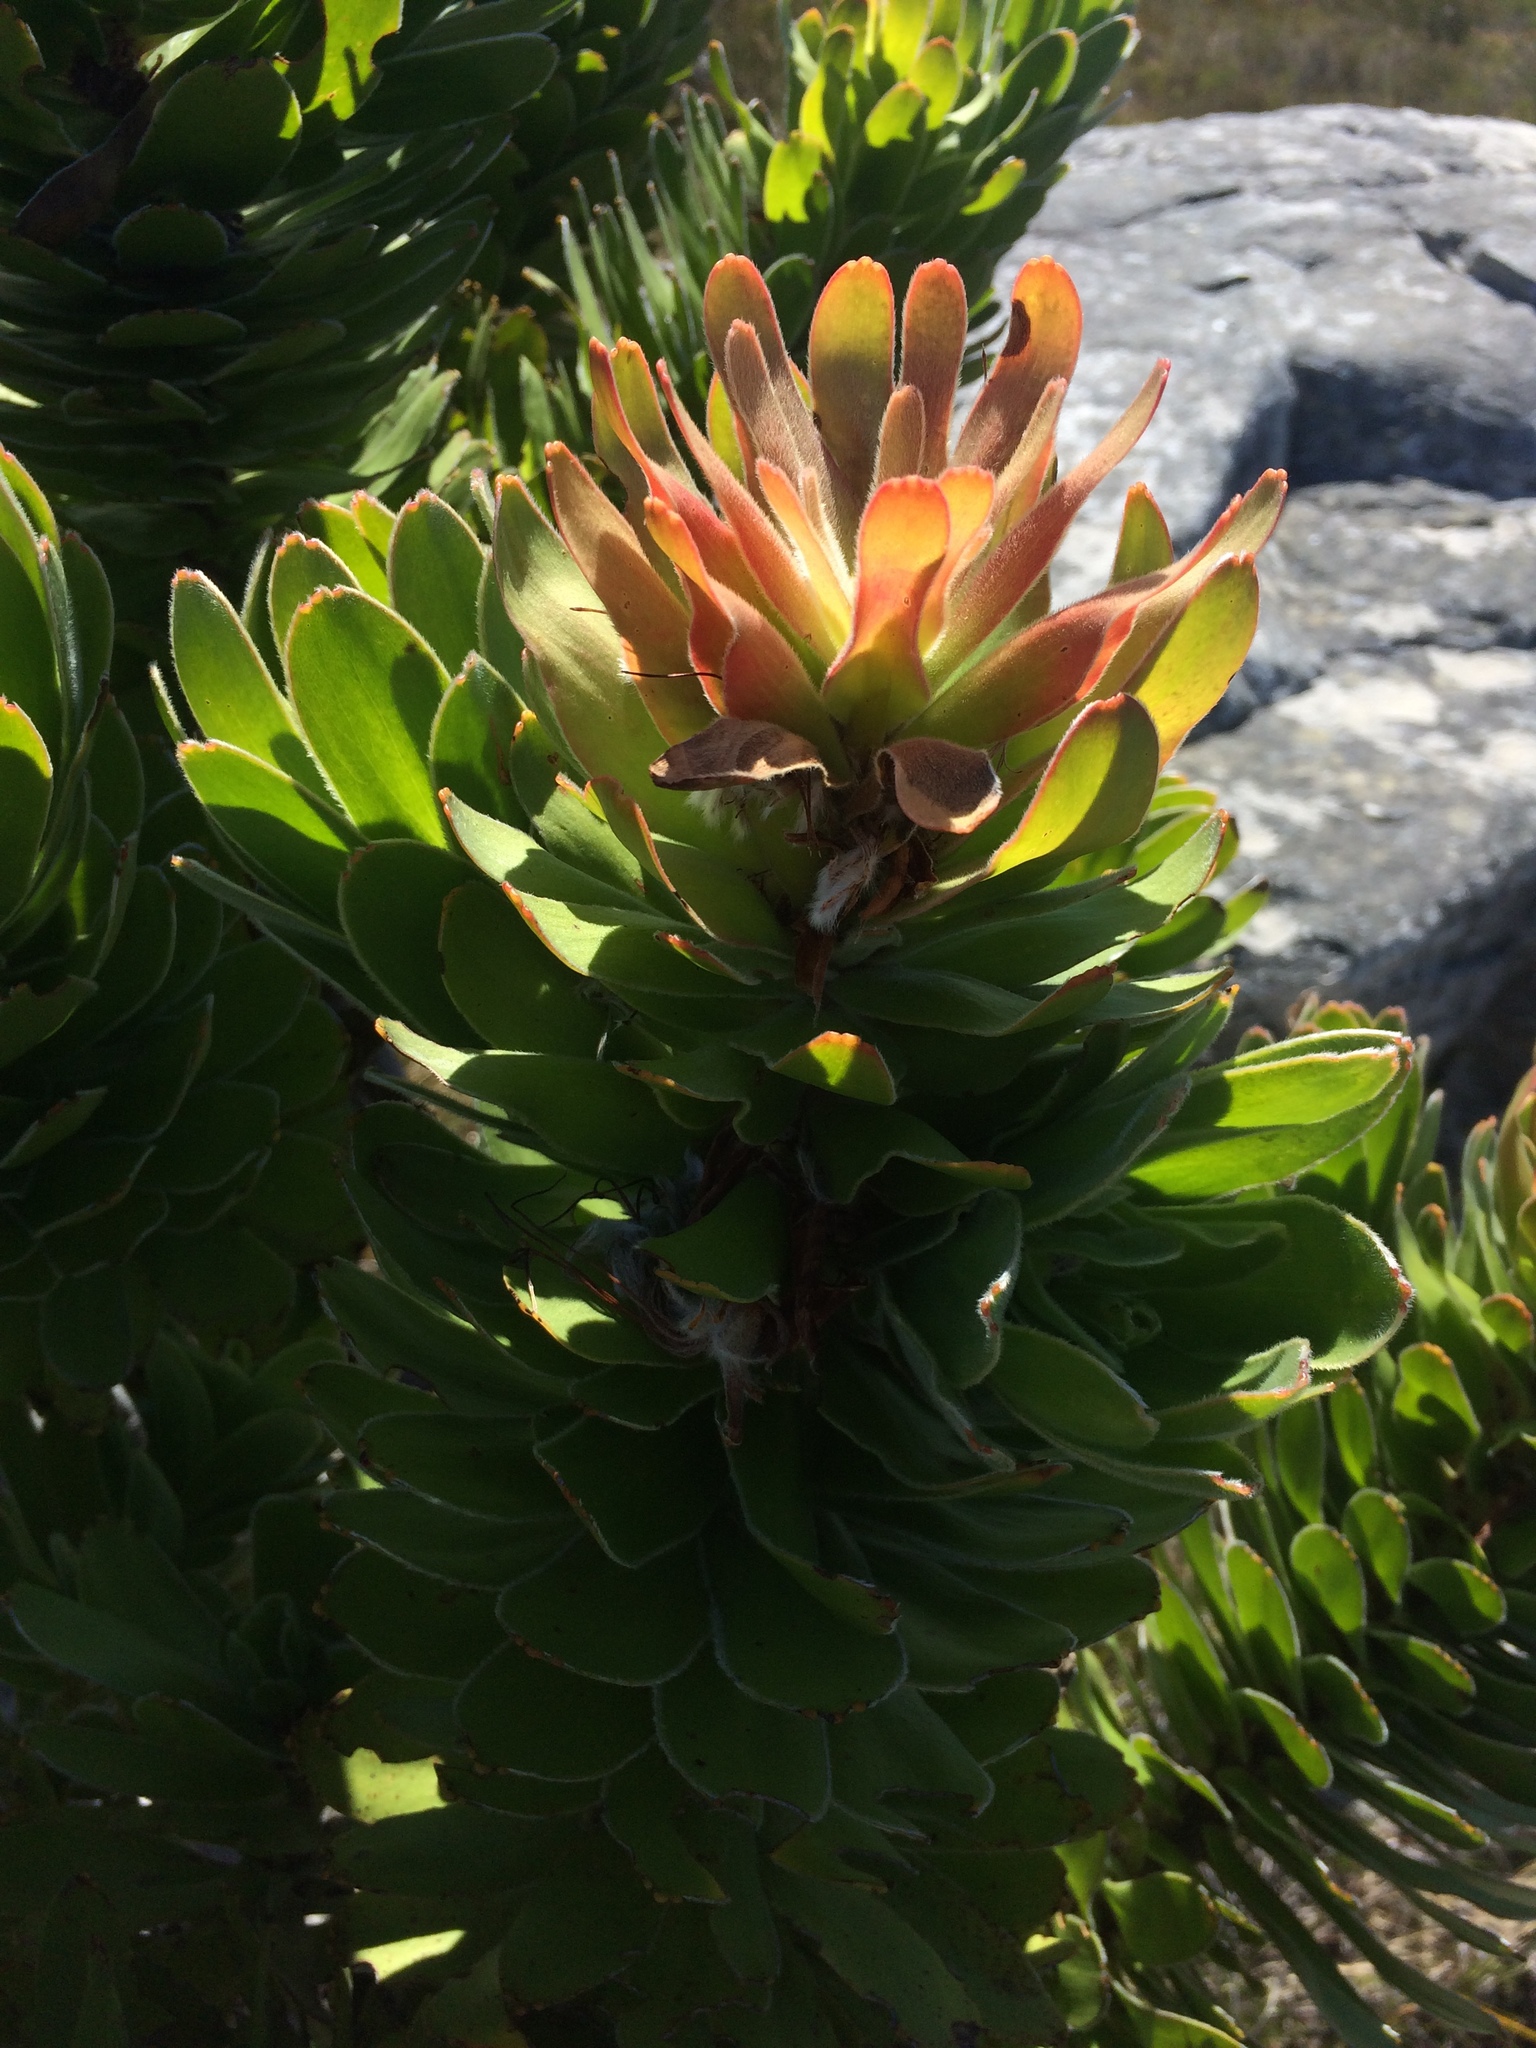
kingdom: Plantae
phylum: Tracheophyta
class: Magnoliopsida
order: Proteales
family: Proteaceae
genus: Mimetes
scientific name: Mimetes fimbriifolius
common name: Fringed bottlebrush
